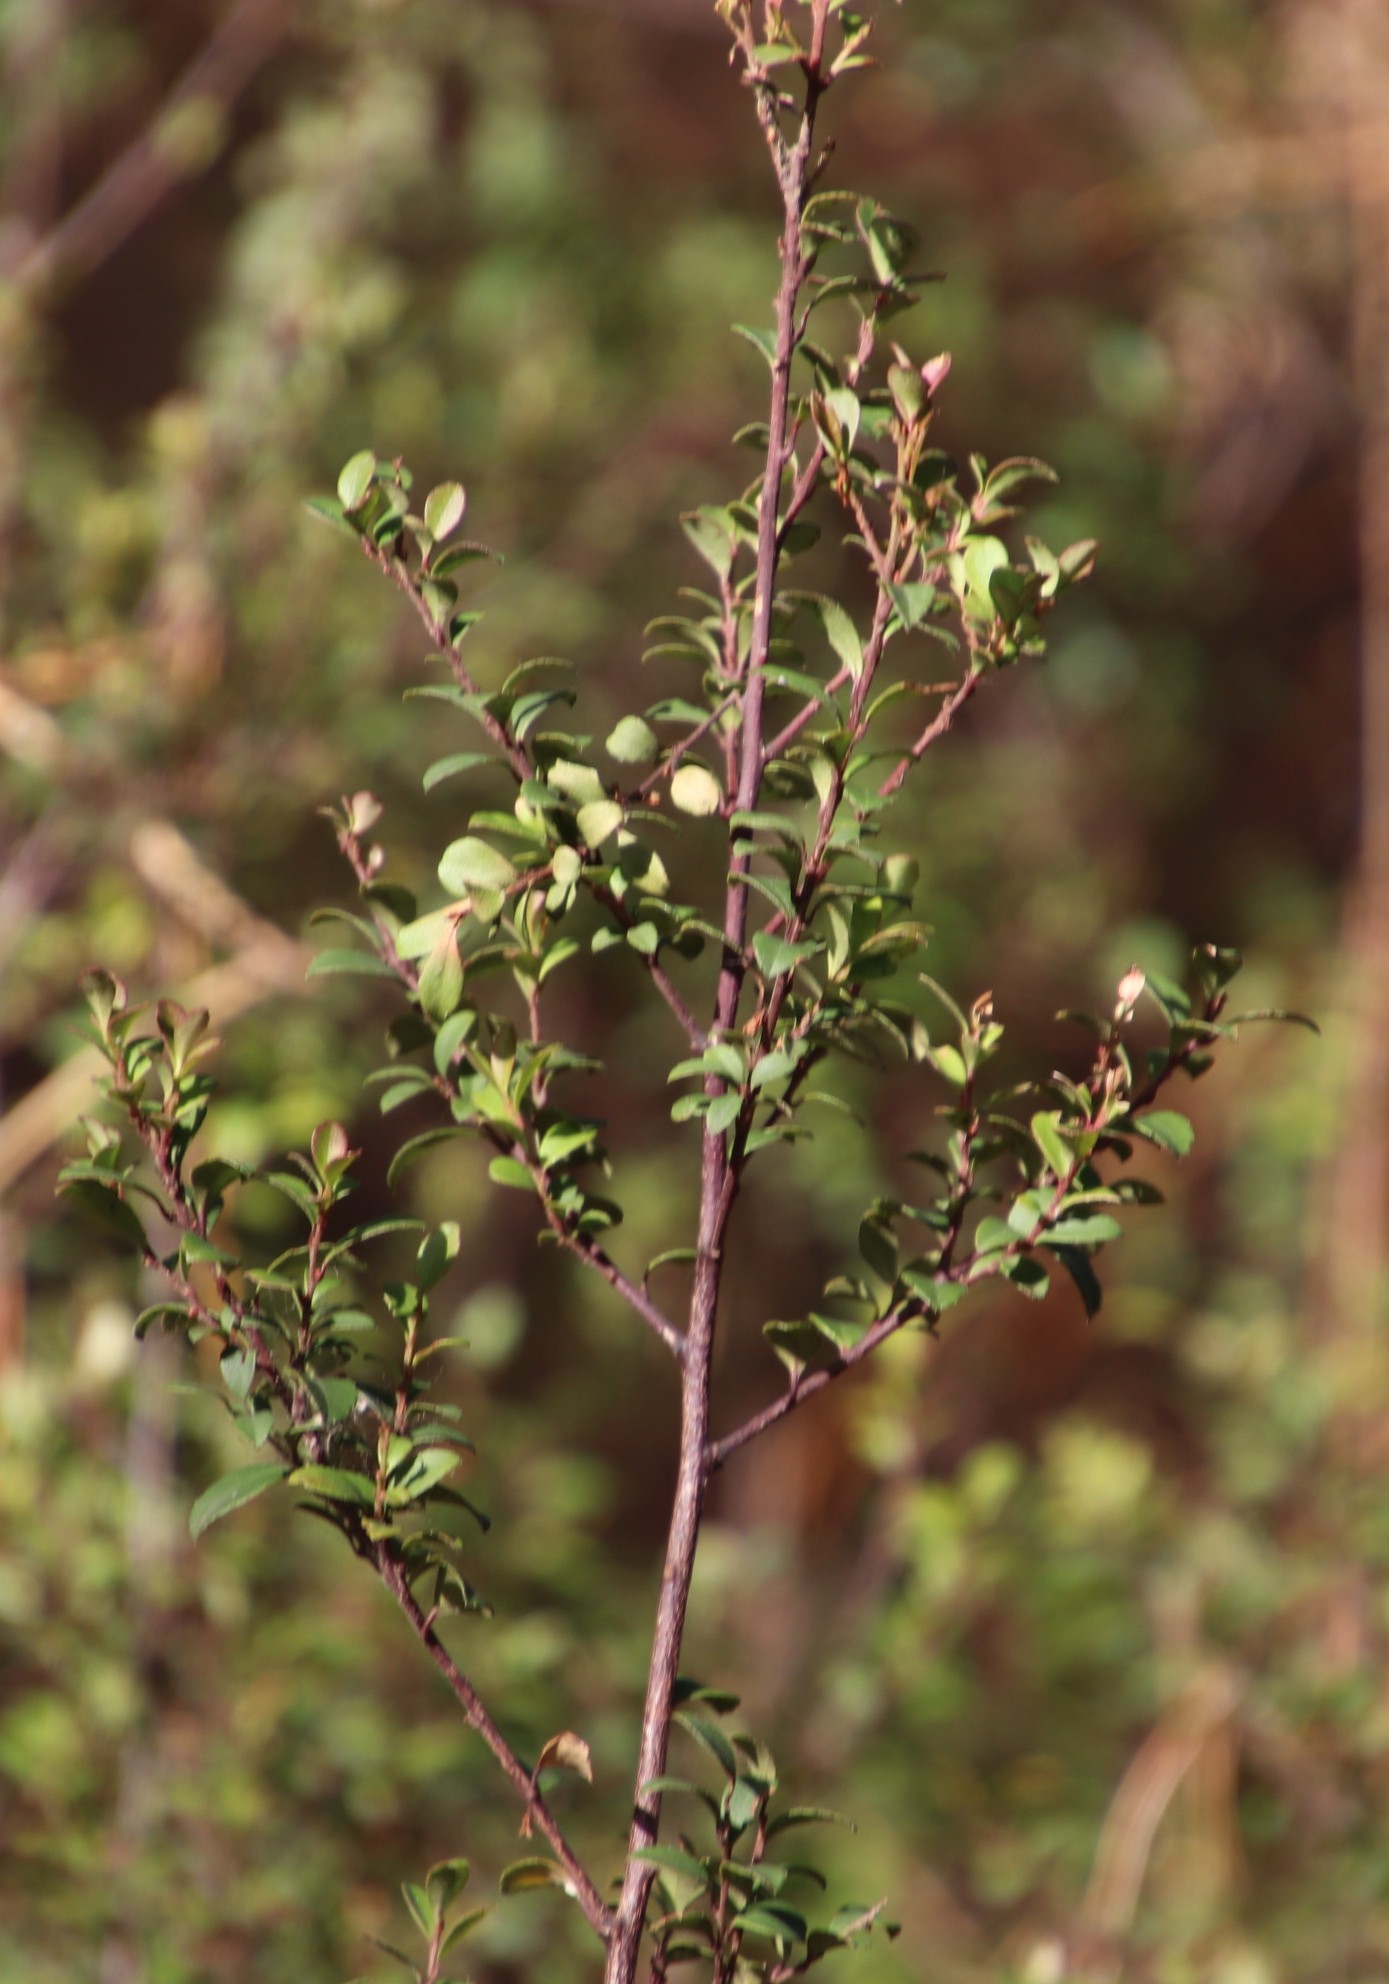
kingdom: Plantae
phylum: Tracheophyta
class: Magnoliopsida
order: Ericales
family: Primulaceae
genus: Myrsine
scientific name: Myrsine africana
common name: African-boxwood
